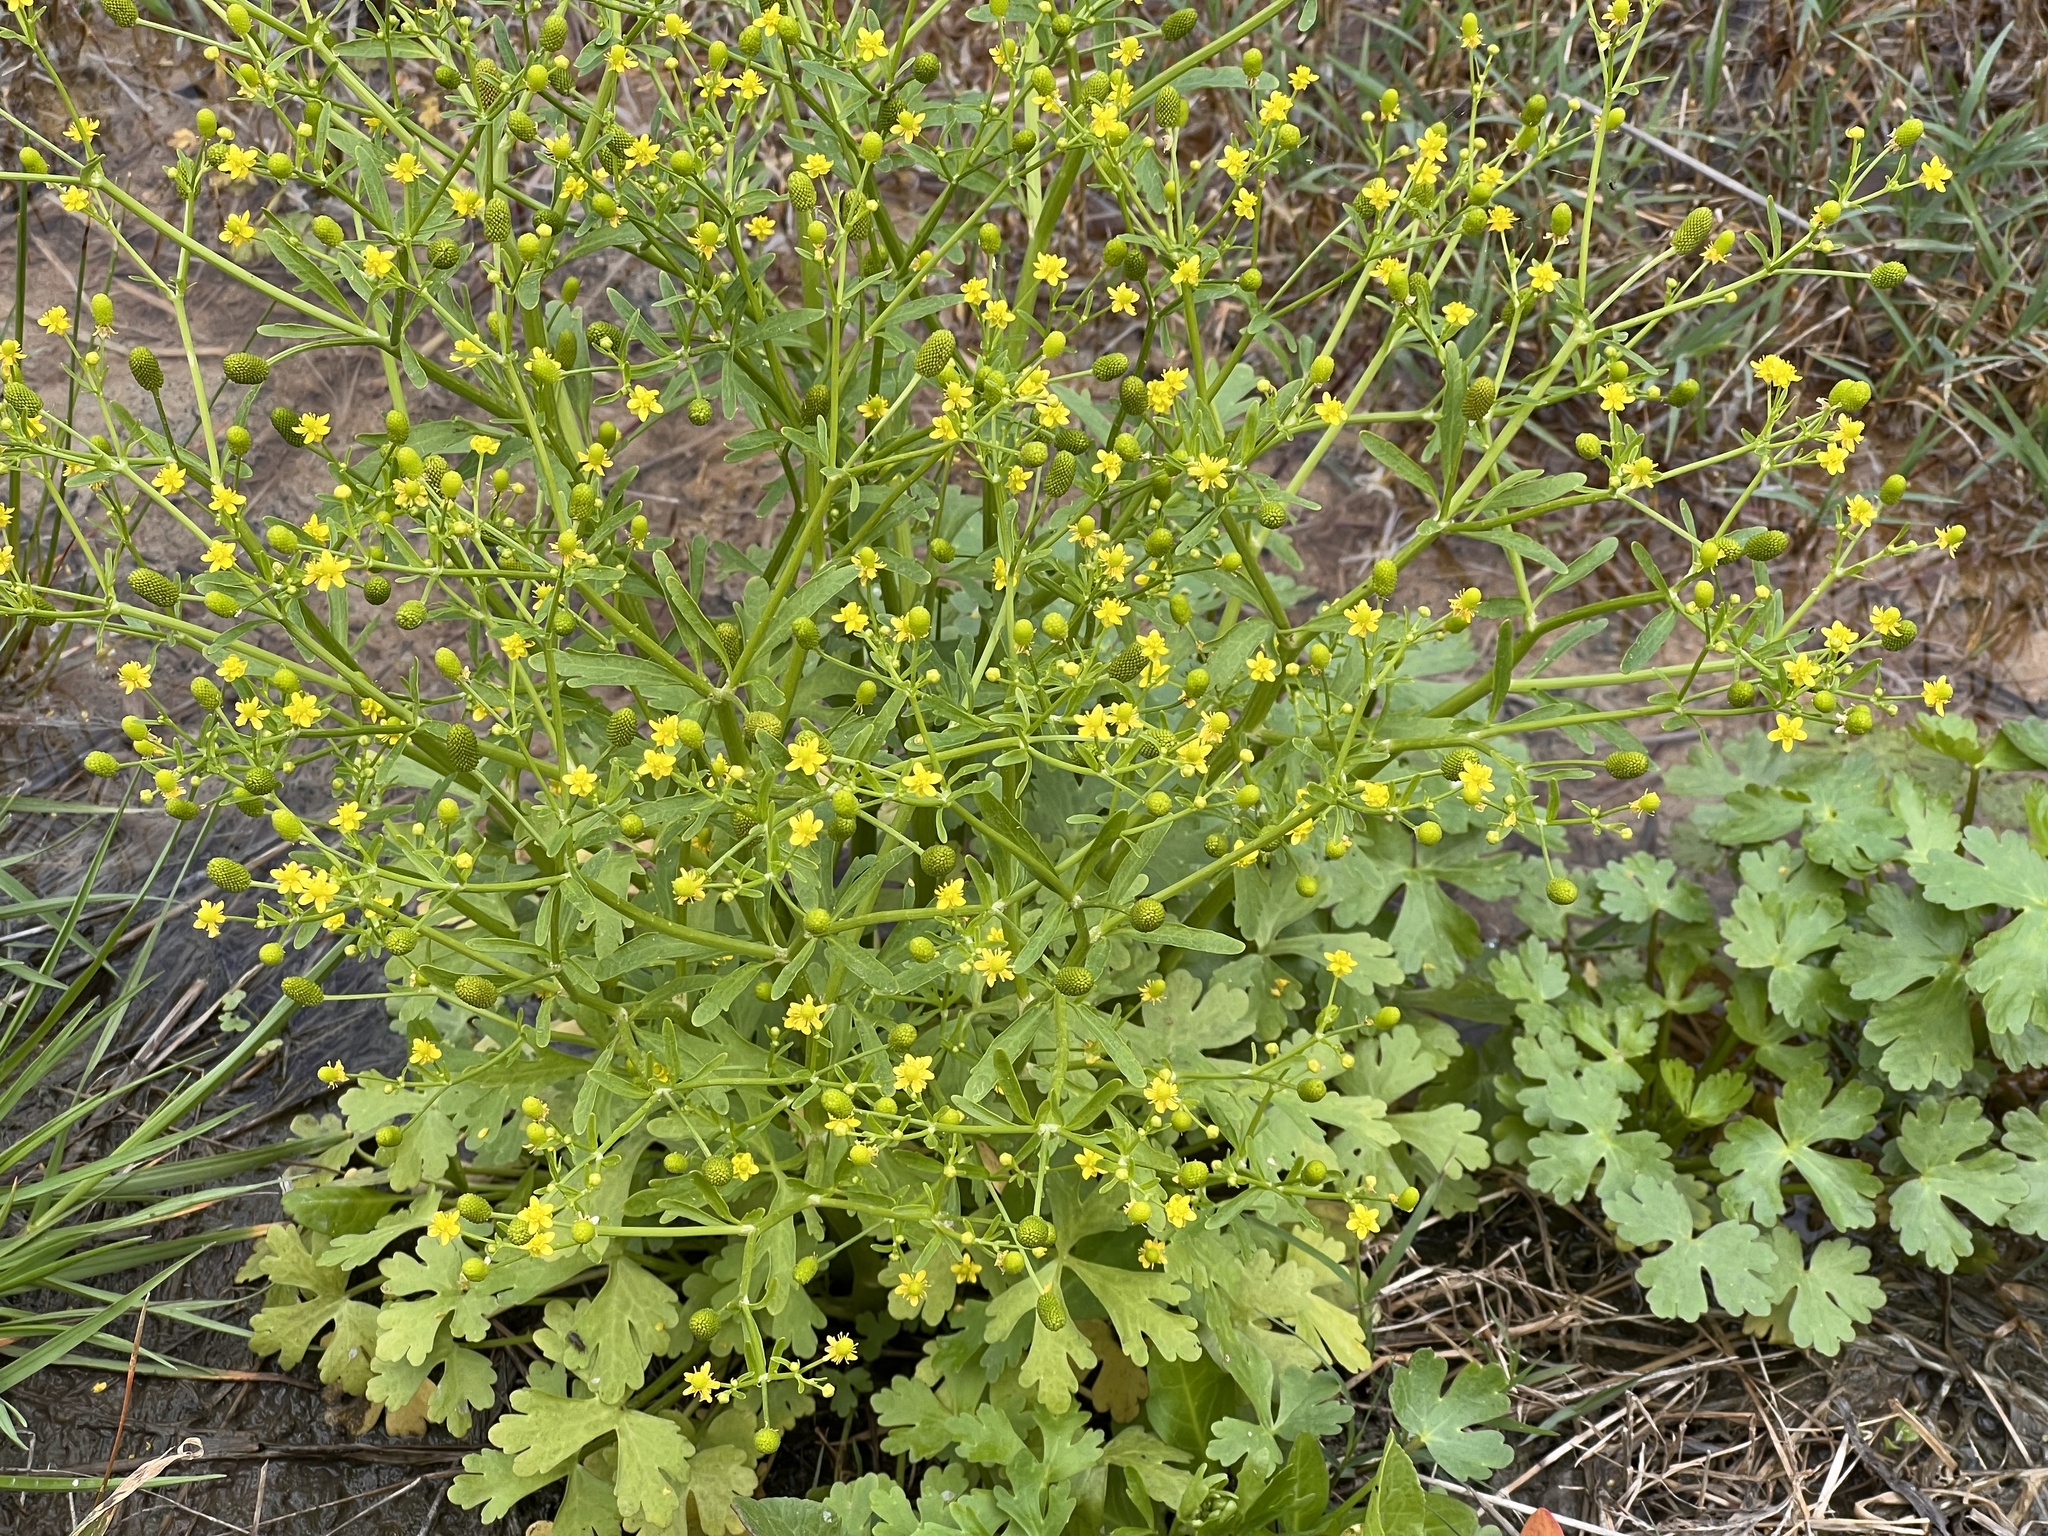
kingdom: Plantae
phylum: Tracheophyta
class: Magnoliopsida
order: Ranunculales
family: Ranunculaceae
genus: Ranunculus
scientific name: Ranunculus sceleratus
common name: Celery-leaved buttercup
